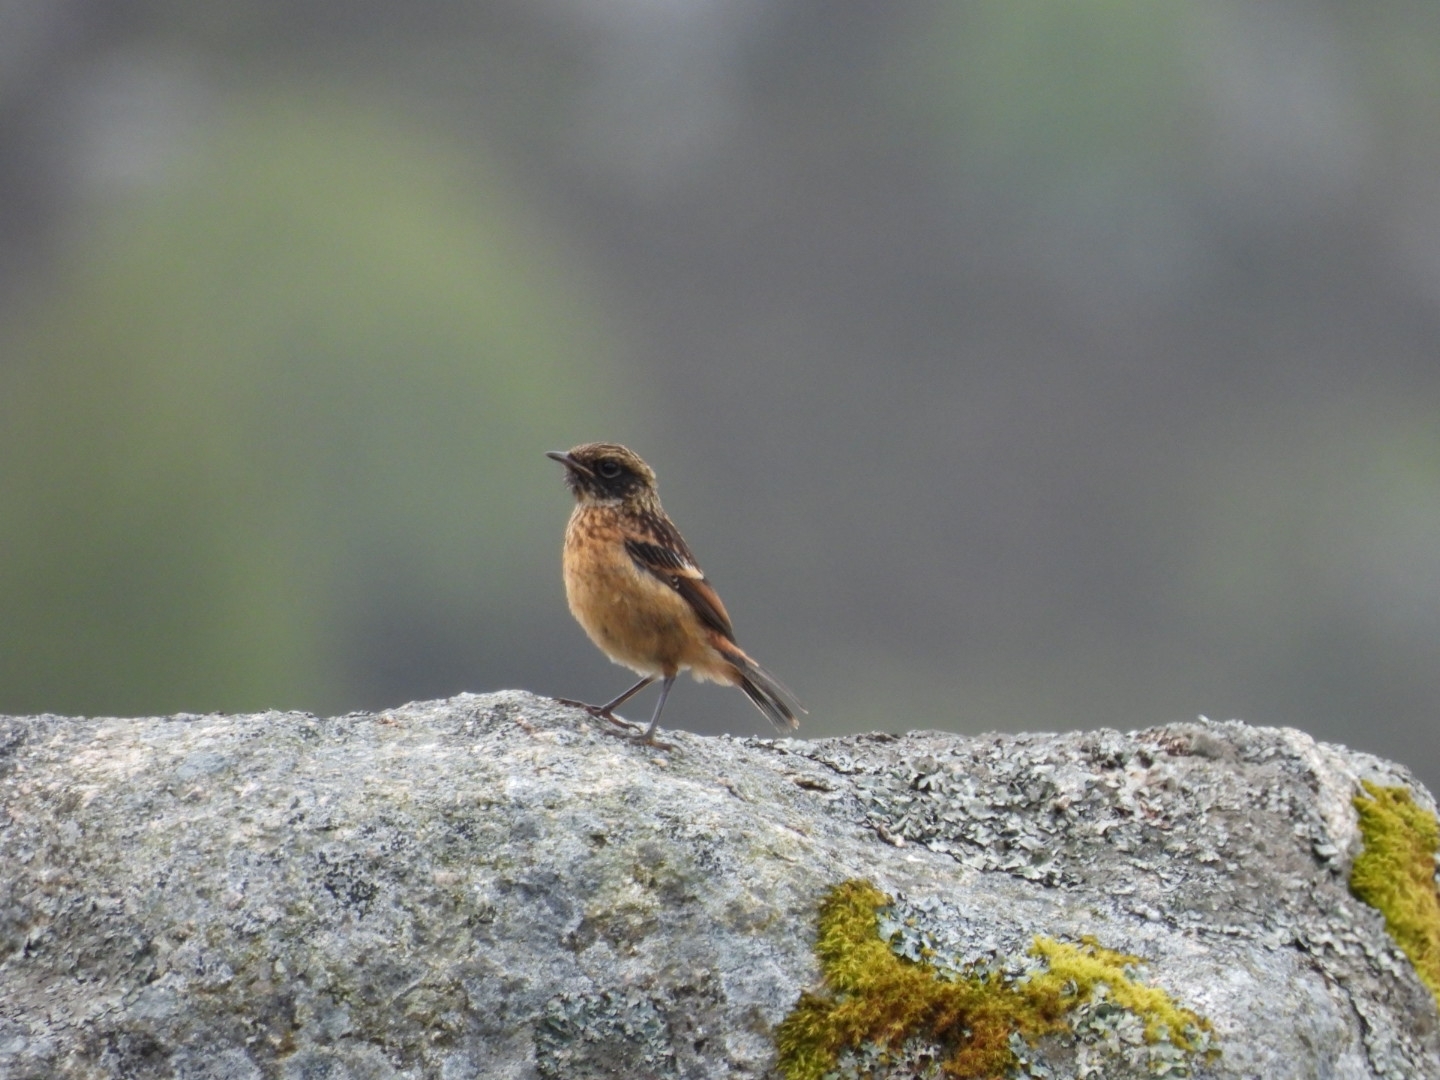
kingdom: Animalia
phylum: Chordata
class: Aves
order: Passeriformes
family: Muscicapidae
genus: Saxicola
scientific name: Saxicola rubicola
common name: European stonechat
